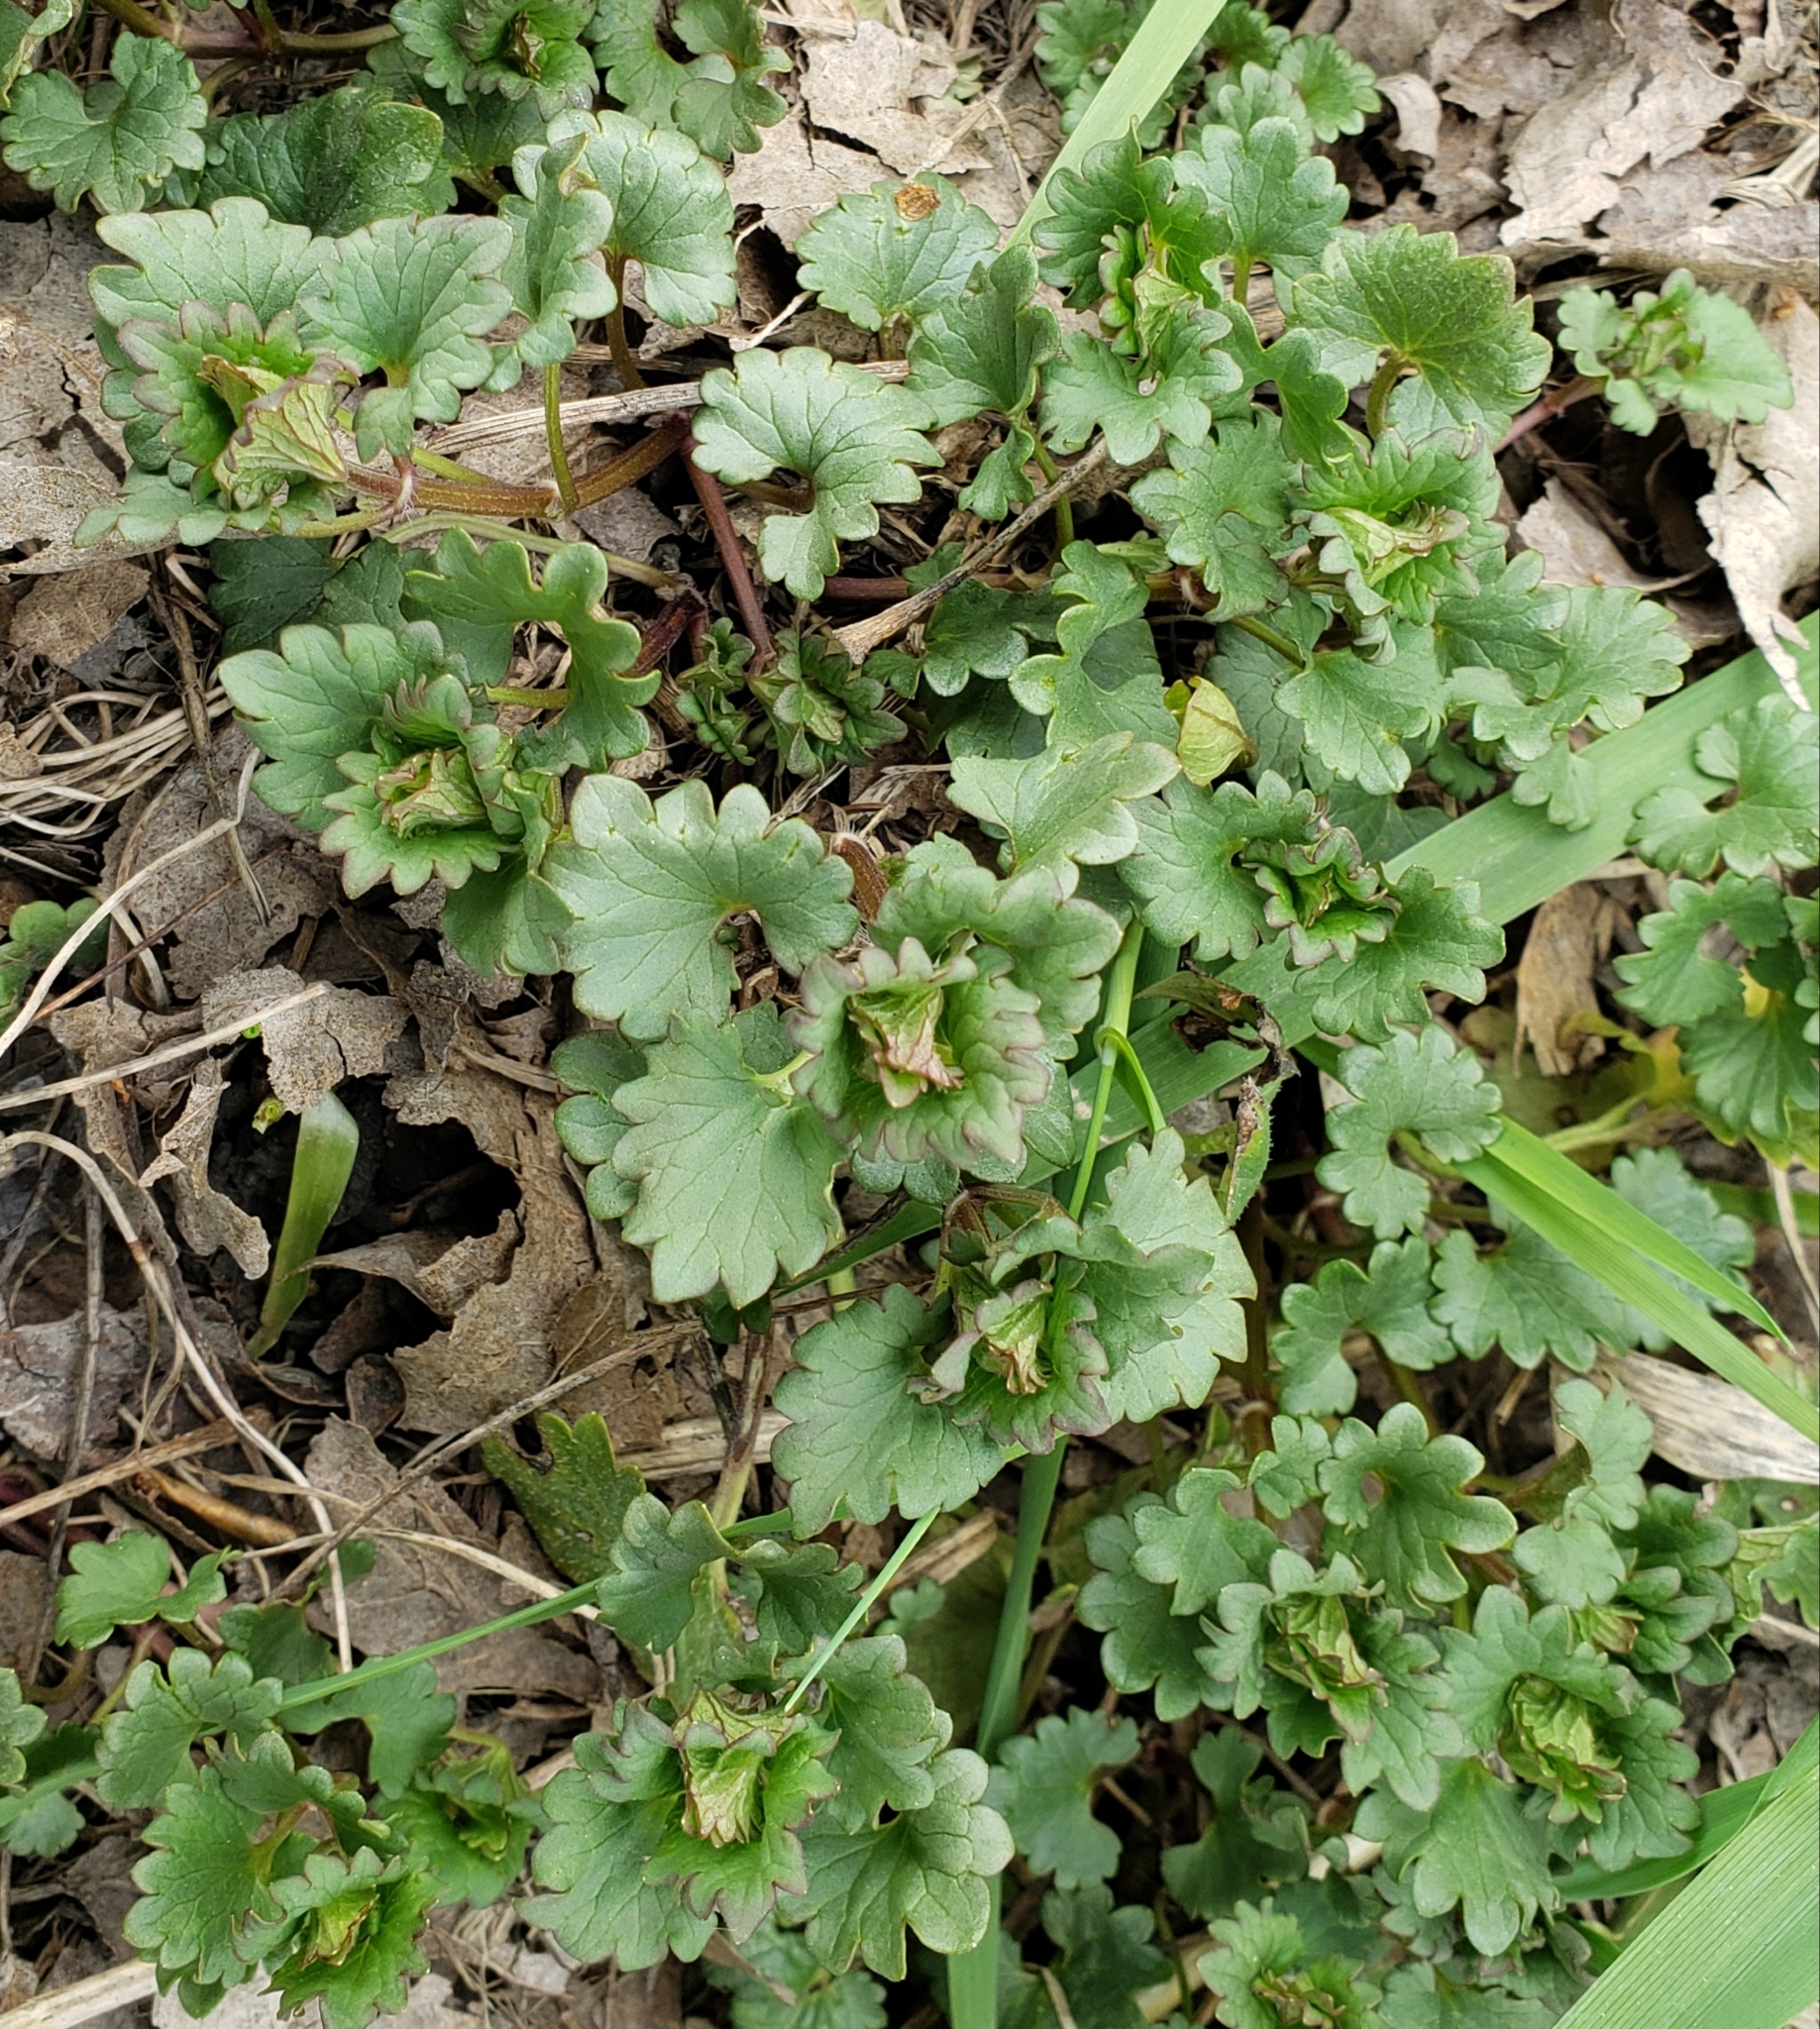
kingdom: Plantae
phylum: Tracheophyta
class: Magnoliopsida
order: Lamiales
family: Lamiaceae
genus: Glechoma
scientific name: Glechoma hederacea
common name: Ground ivy
